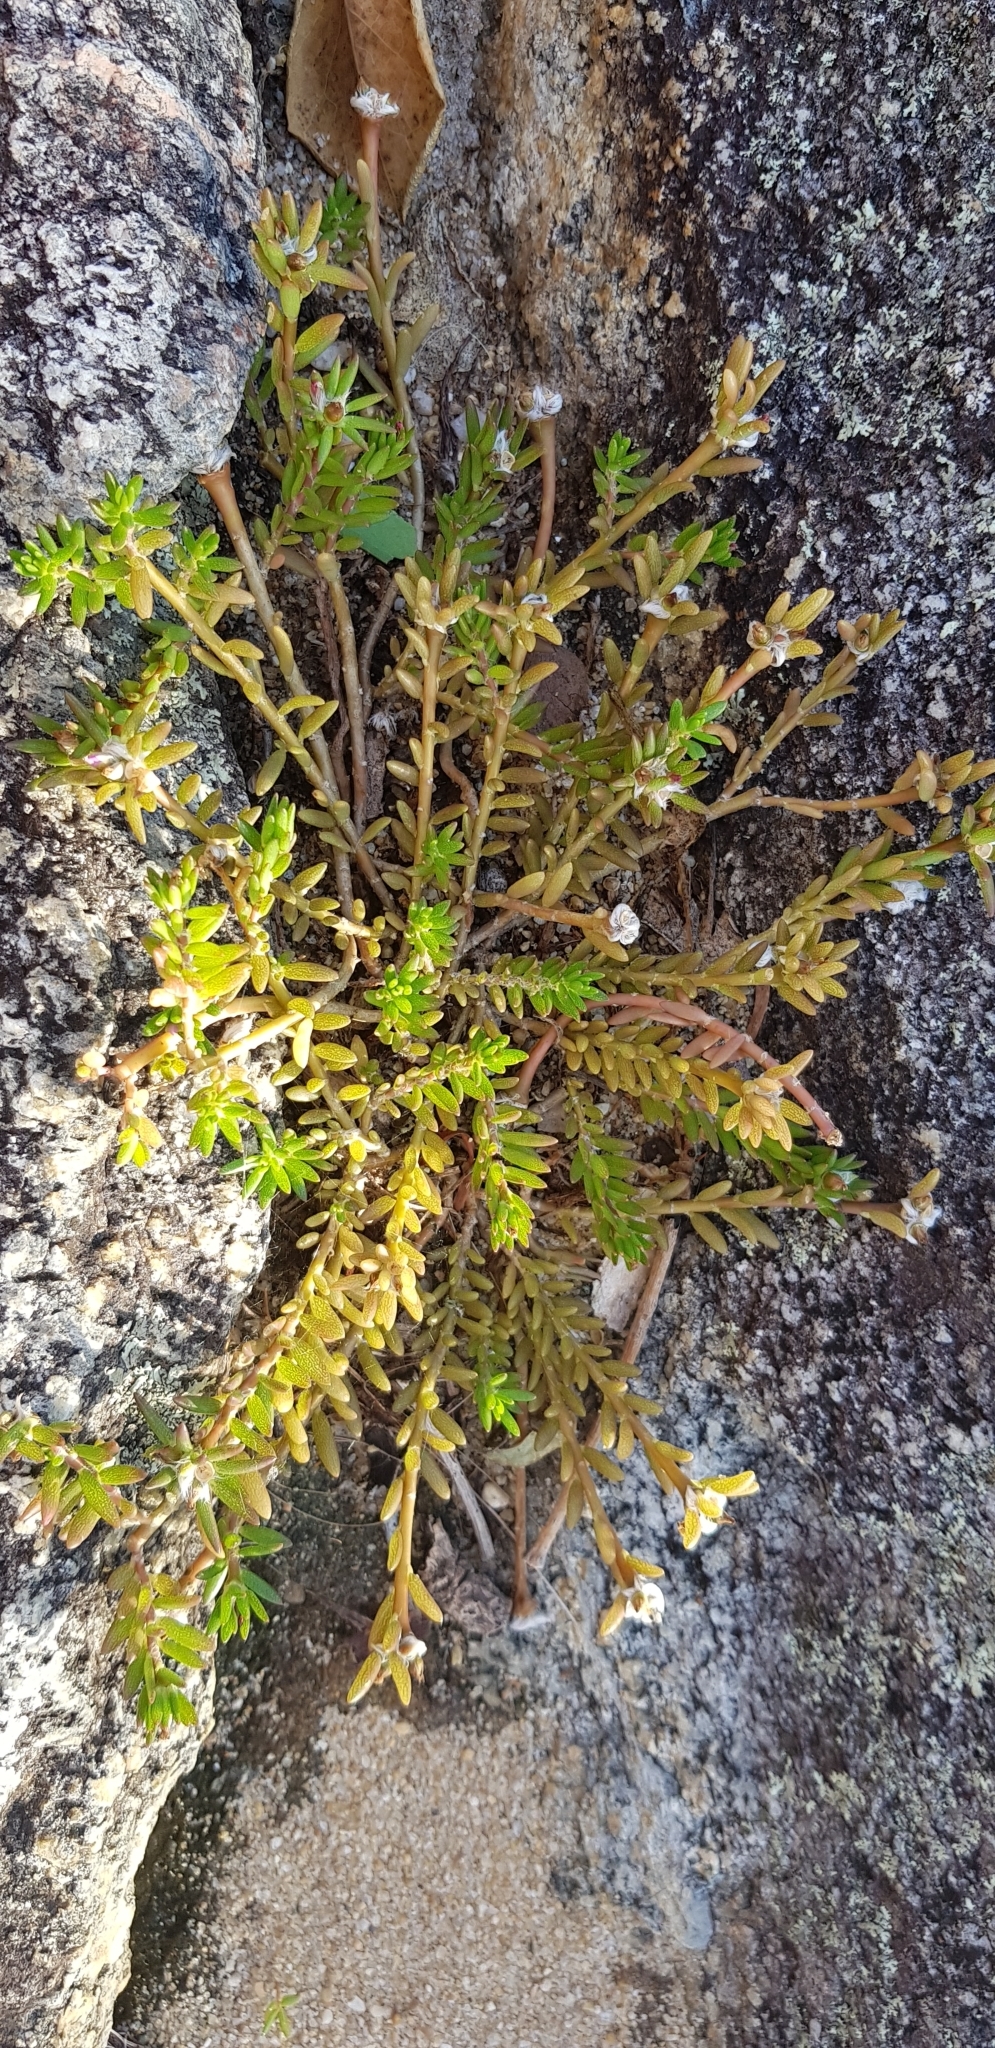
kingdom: Plantae
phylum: Tracheophyta
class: Magnoliopsida
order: Caryophyllales
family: Portulacaceae
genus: Portulaca
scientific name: Portulaca pilosa
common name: Kiss me quick
